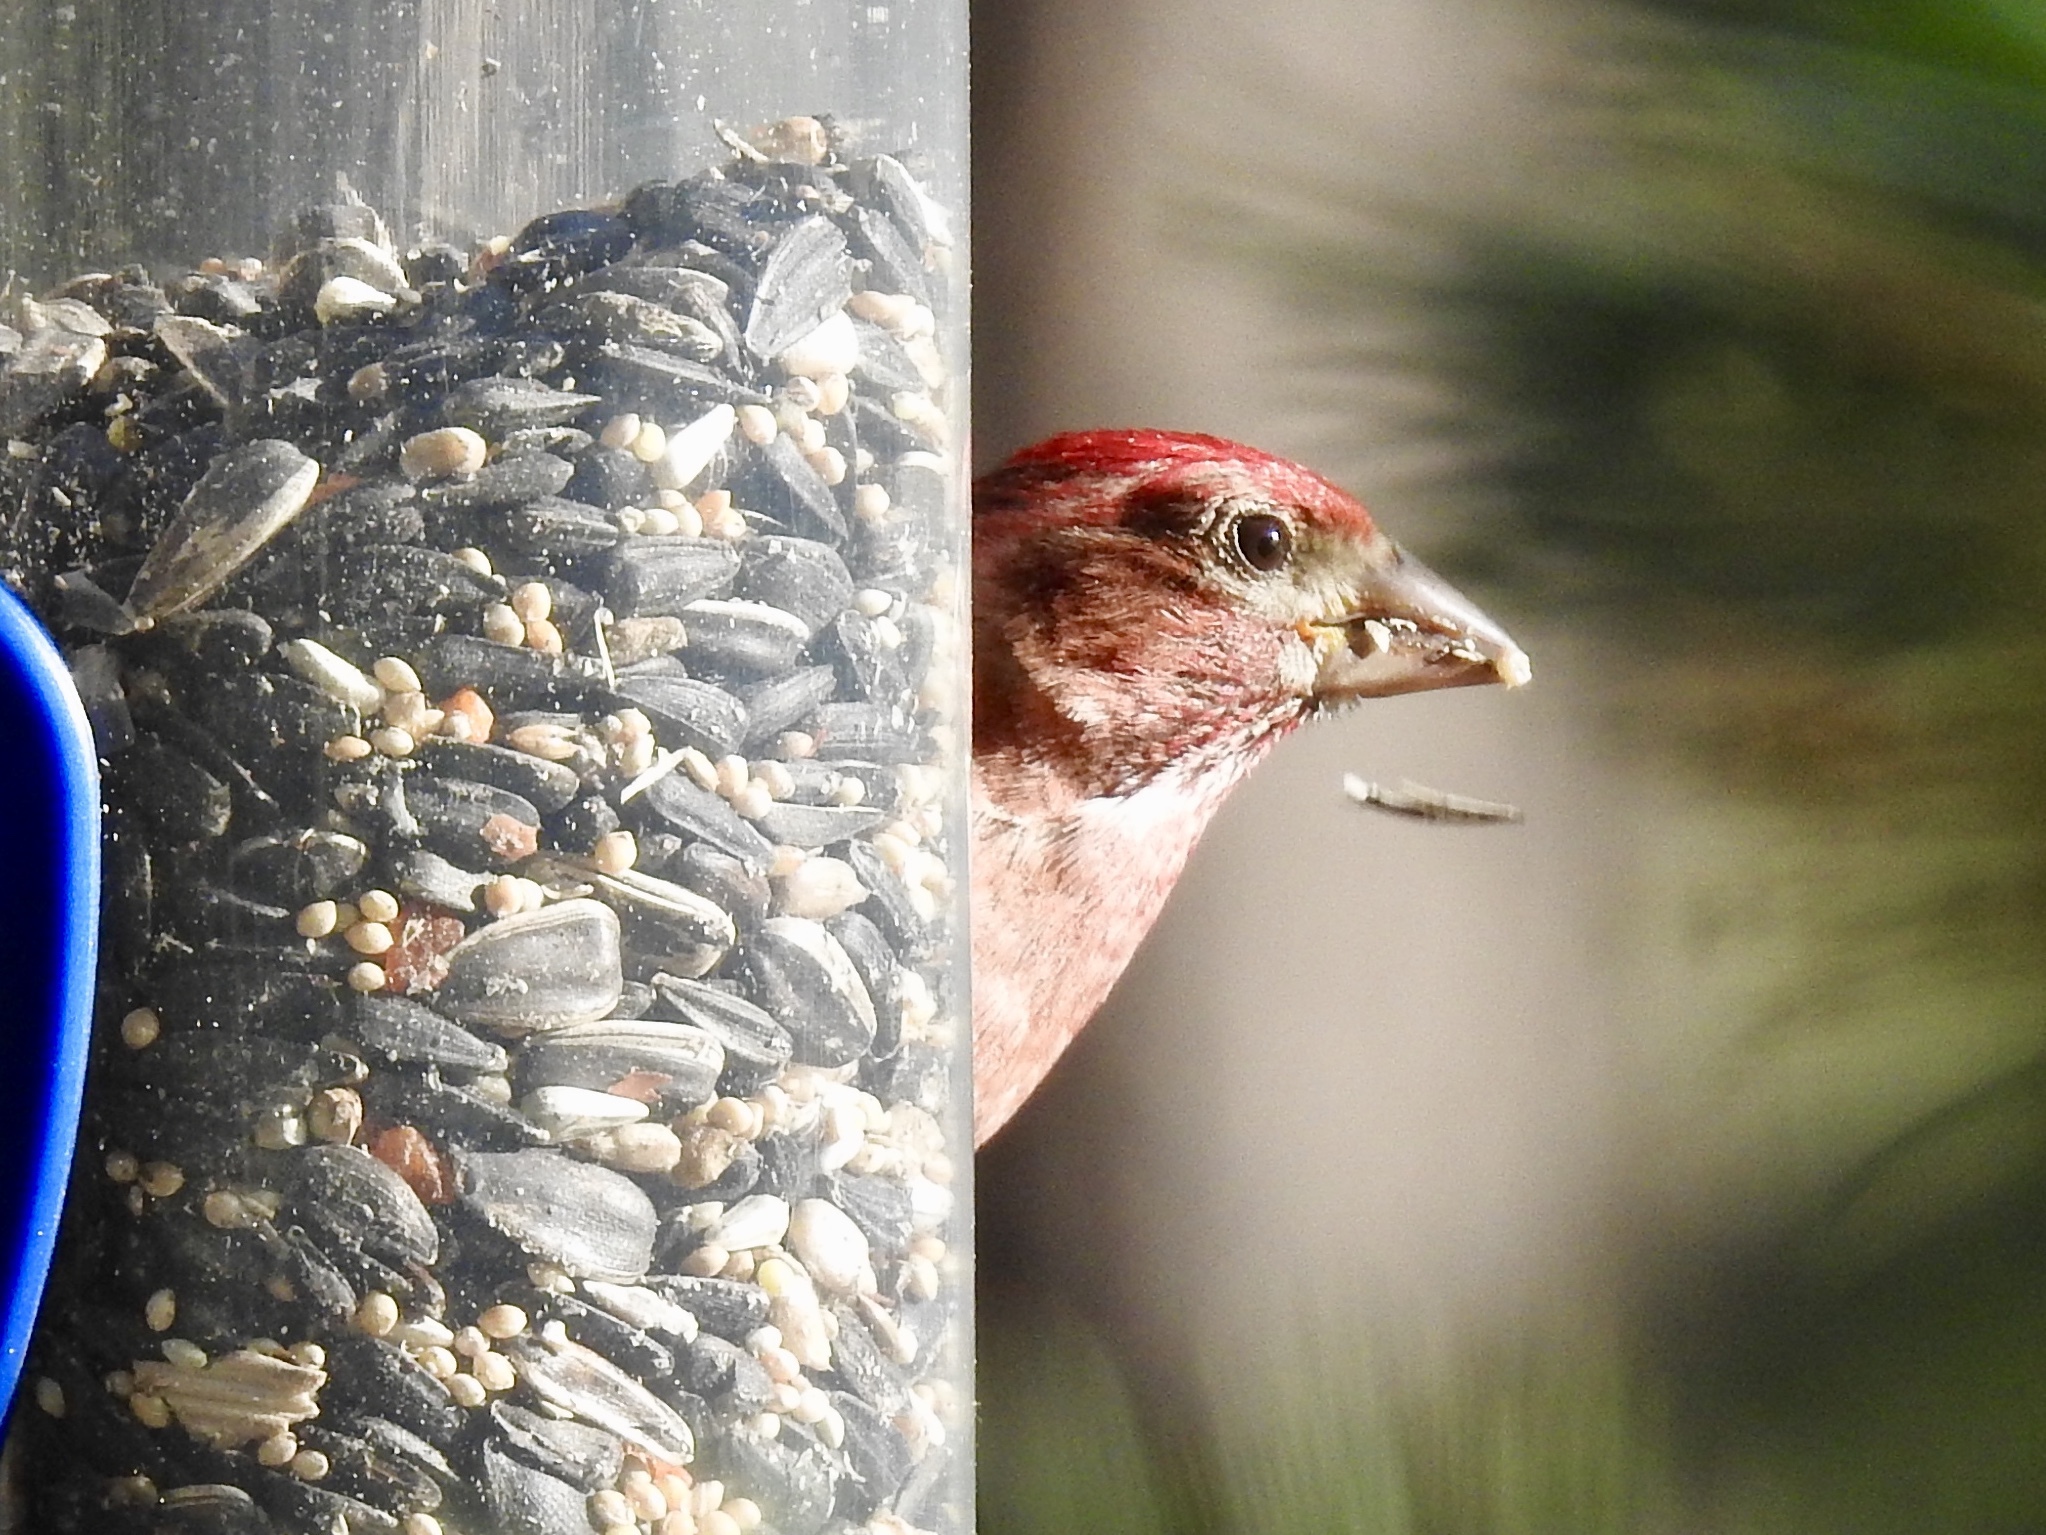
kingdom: Animalia
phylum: Chordata
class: Aves
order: Passeriformes
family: Fringillidae
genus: Haemorhous
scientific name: Haemorhous cassinii
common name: Cassin's finch
